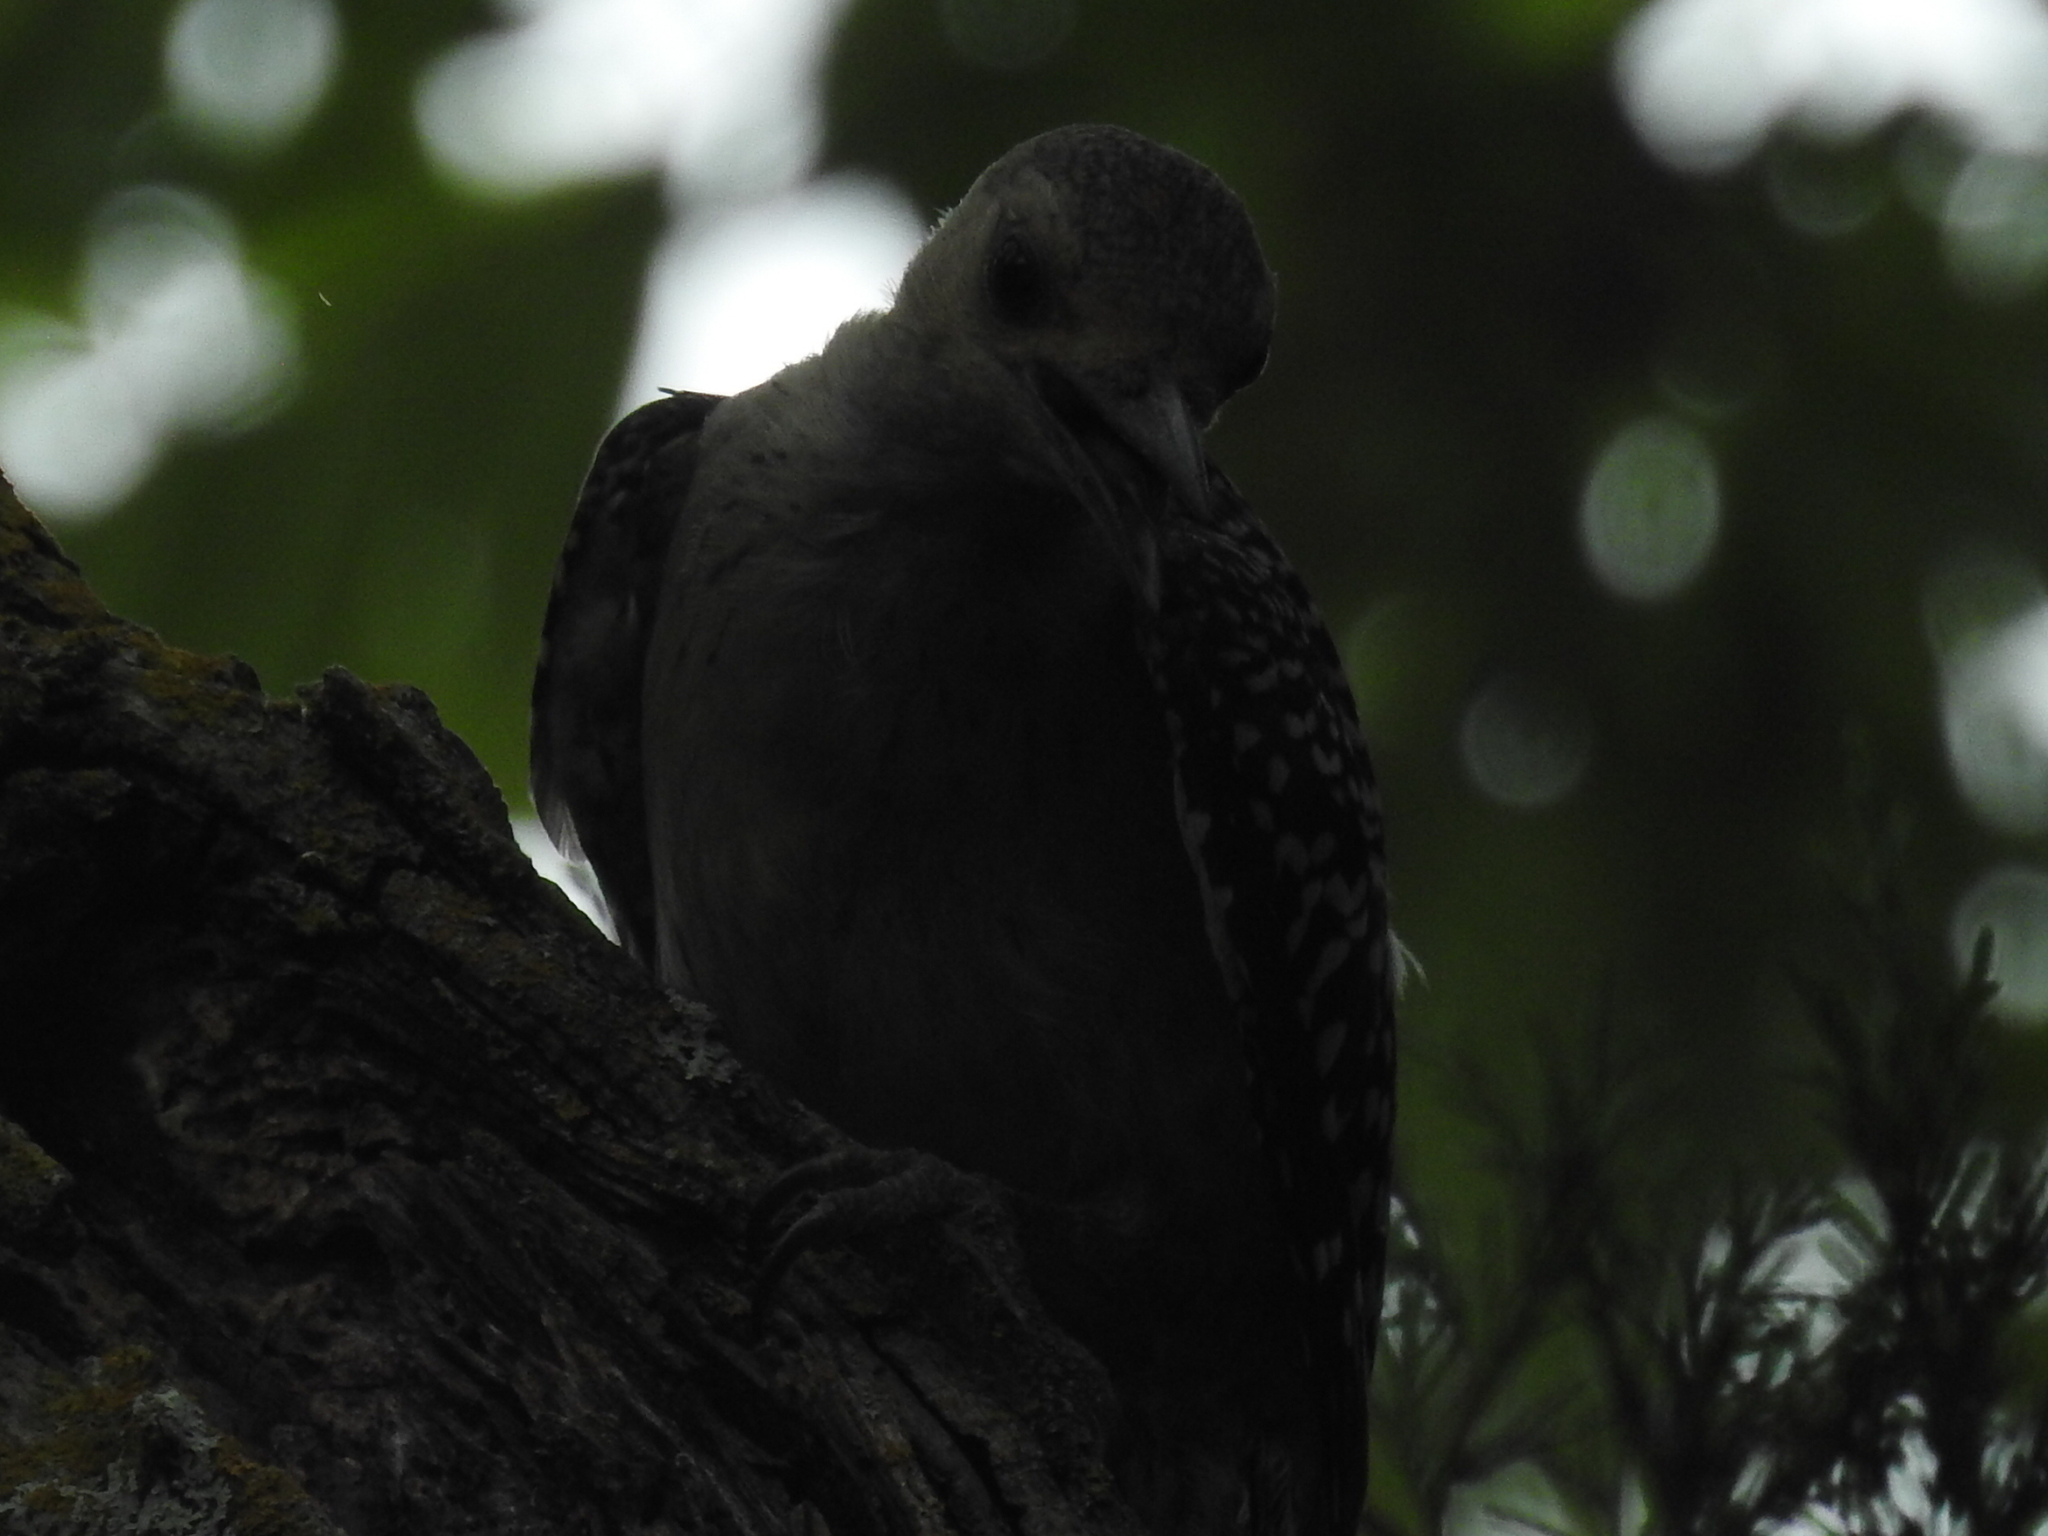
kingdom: Animalia
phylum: Chordata
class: Aves
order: Piciformes
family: Picidae
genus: Melanerpes
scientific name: Melanerpes carolinus
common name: Red-bellied woodpecker
